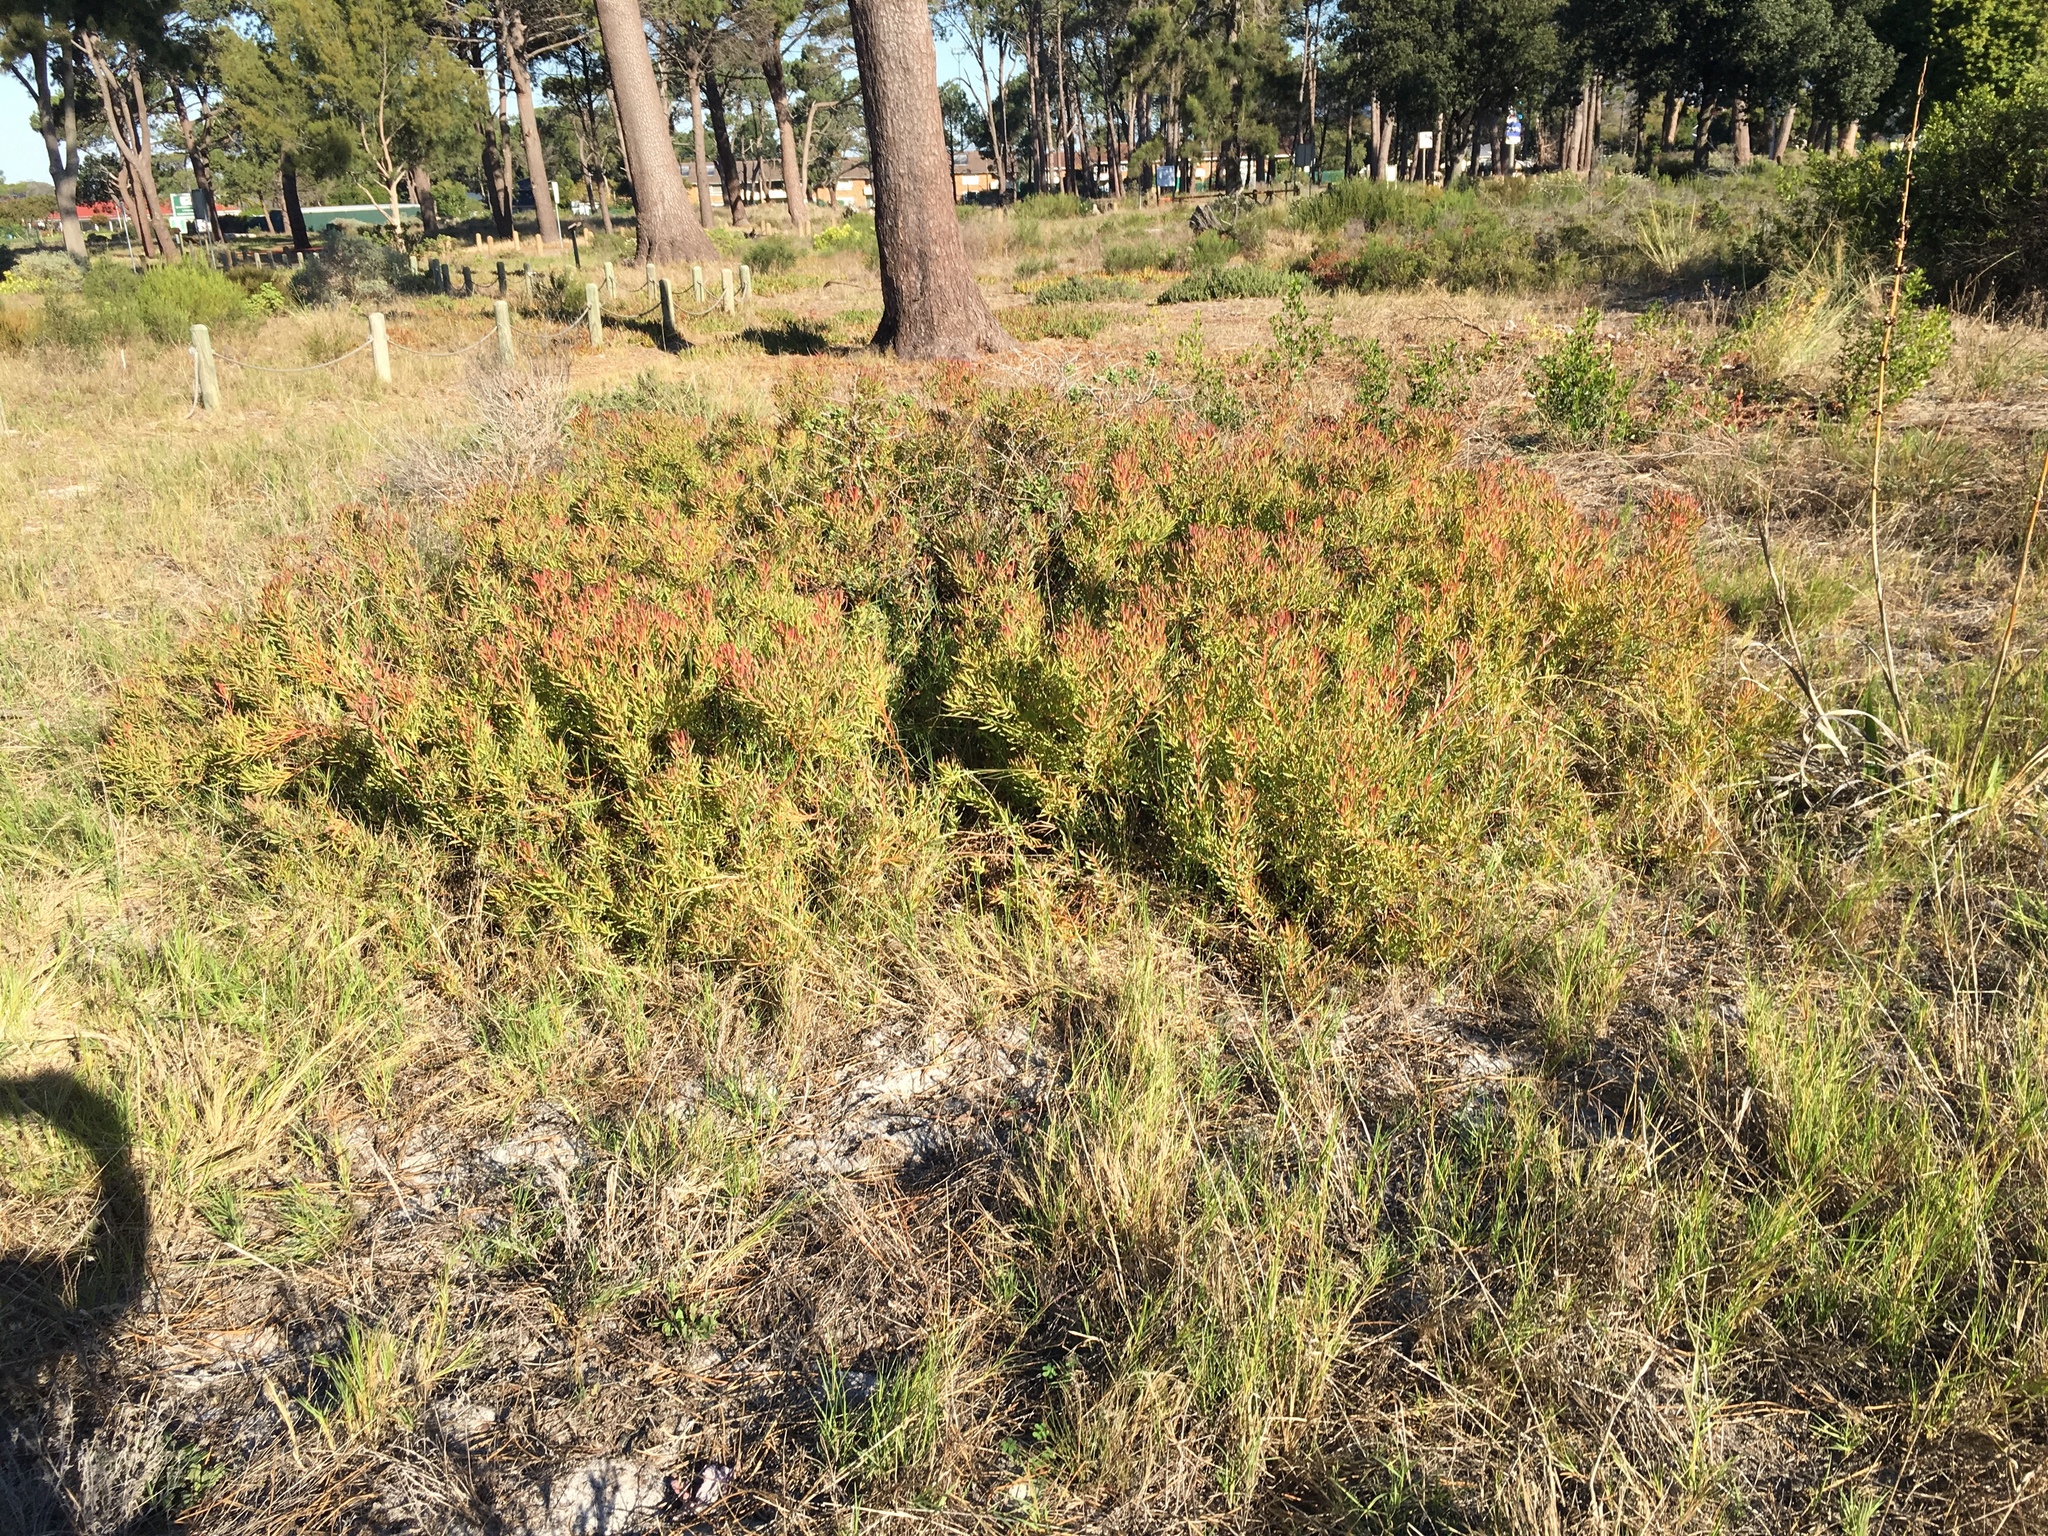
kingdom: Plantae
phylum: Tracheophyta
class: Magnoliopsida
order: Proteales
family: Proteaceae
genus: Leucadendron
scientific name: Leucadendron salignum
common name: Common sunshine conebush
